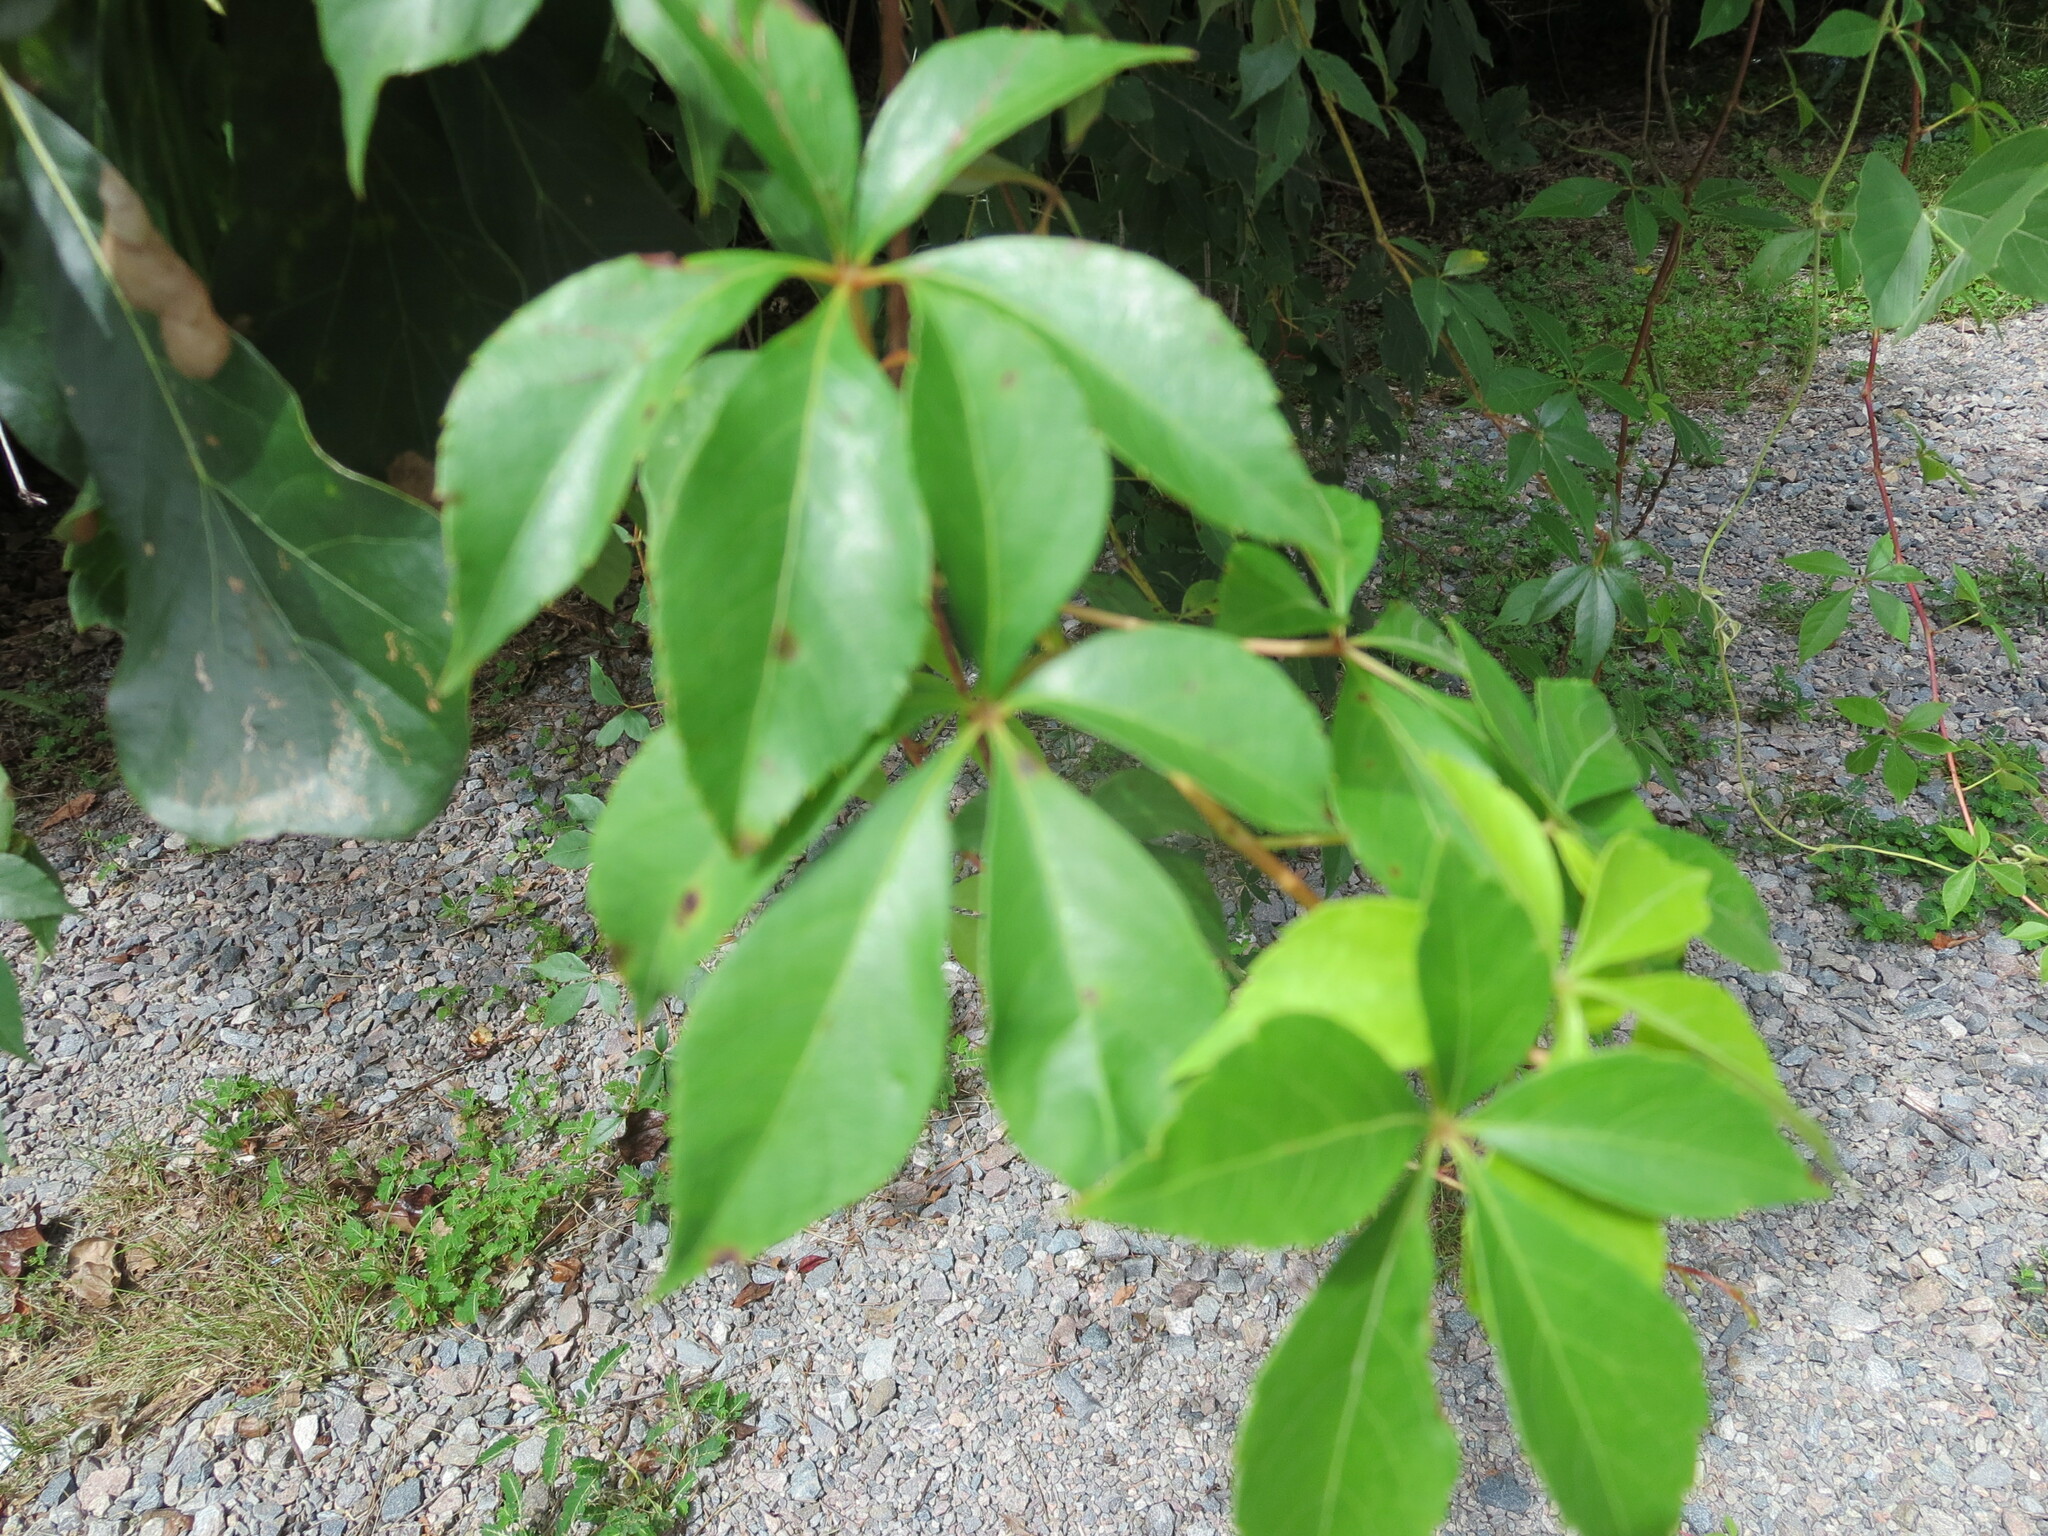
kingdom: Plantae
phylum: Tracheophyta
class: Magnoliopsida
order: Vitales
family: Vitaceae
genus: Parthenocissus
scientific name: Parthenocissus quinquefolia
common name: Virginia-creeper
